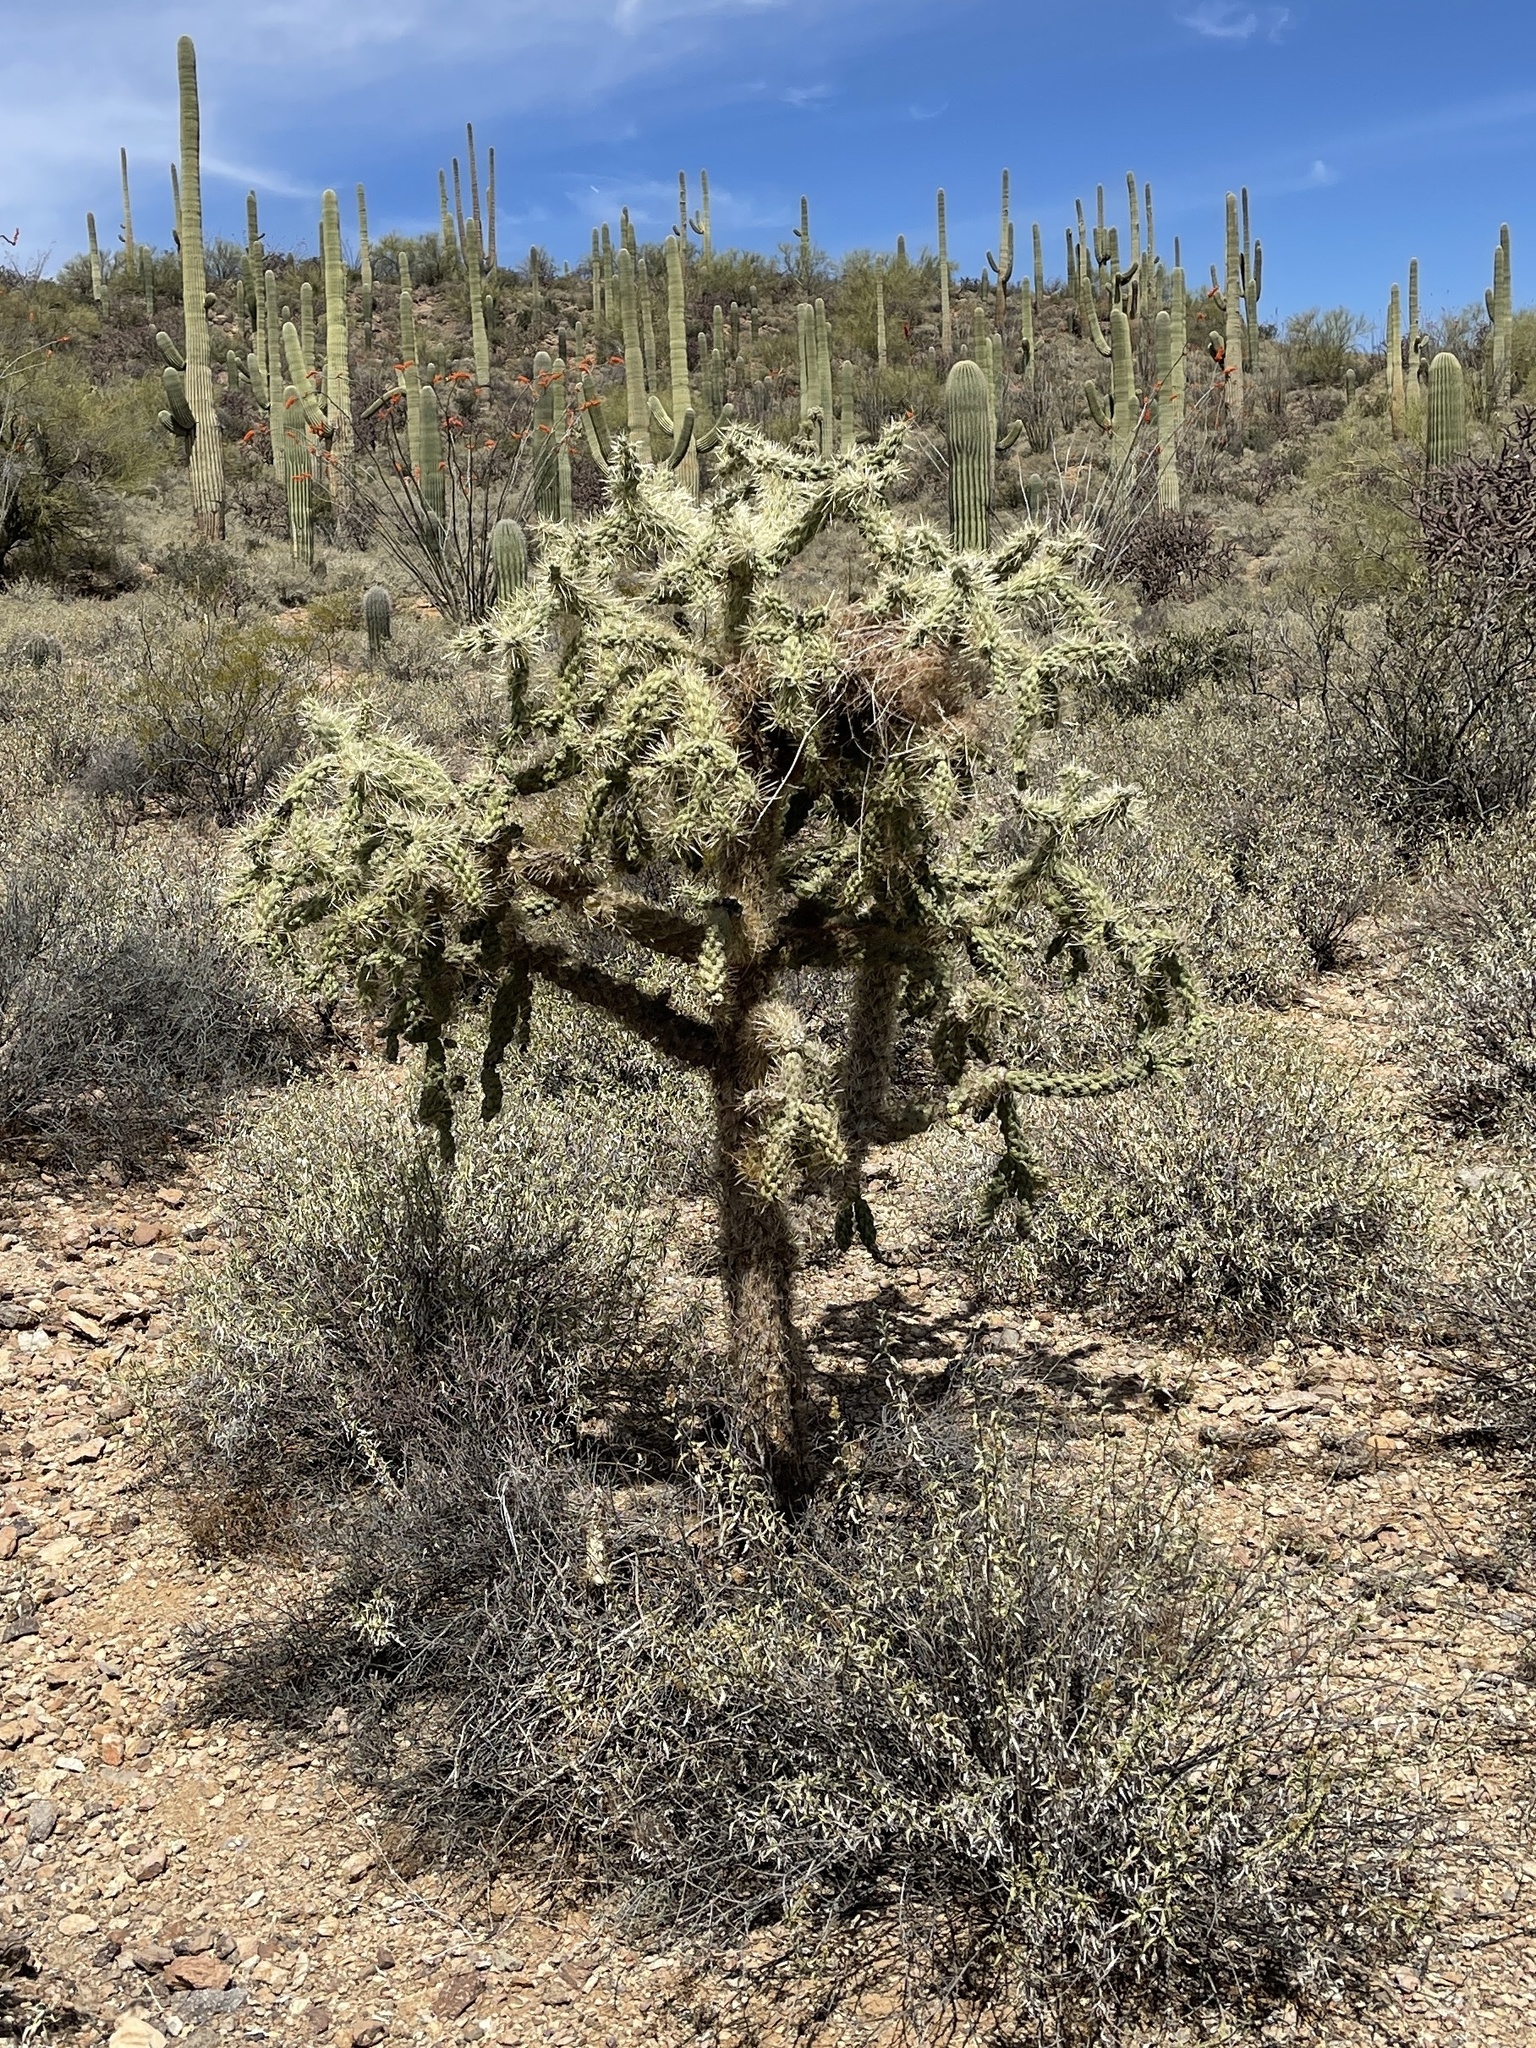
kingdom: Plantae
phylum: Tracheophyta
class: Magnoliopsida
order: Caryophyllales
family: Cactaceae
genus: Cylindropuntia
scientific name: Cylindropuntia fulgida
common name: Jumping cholla
